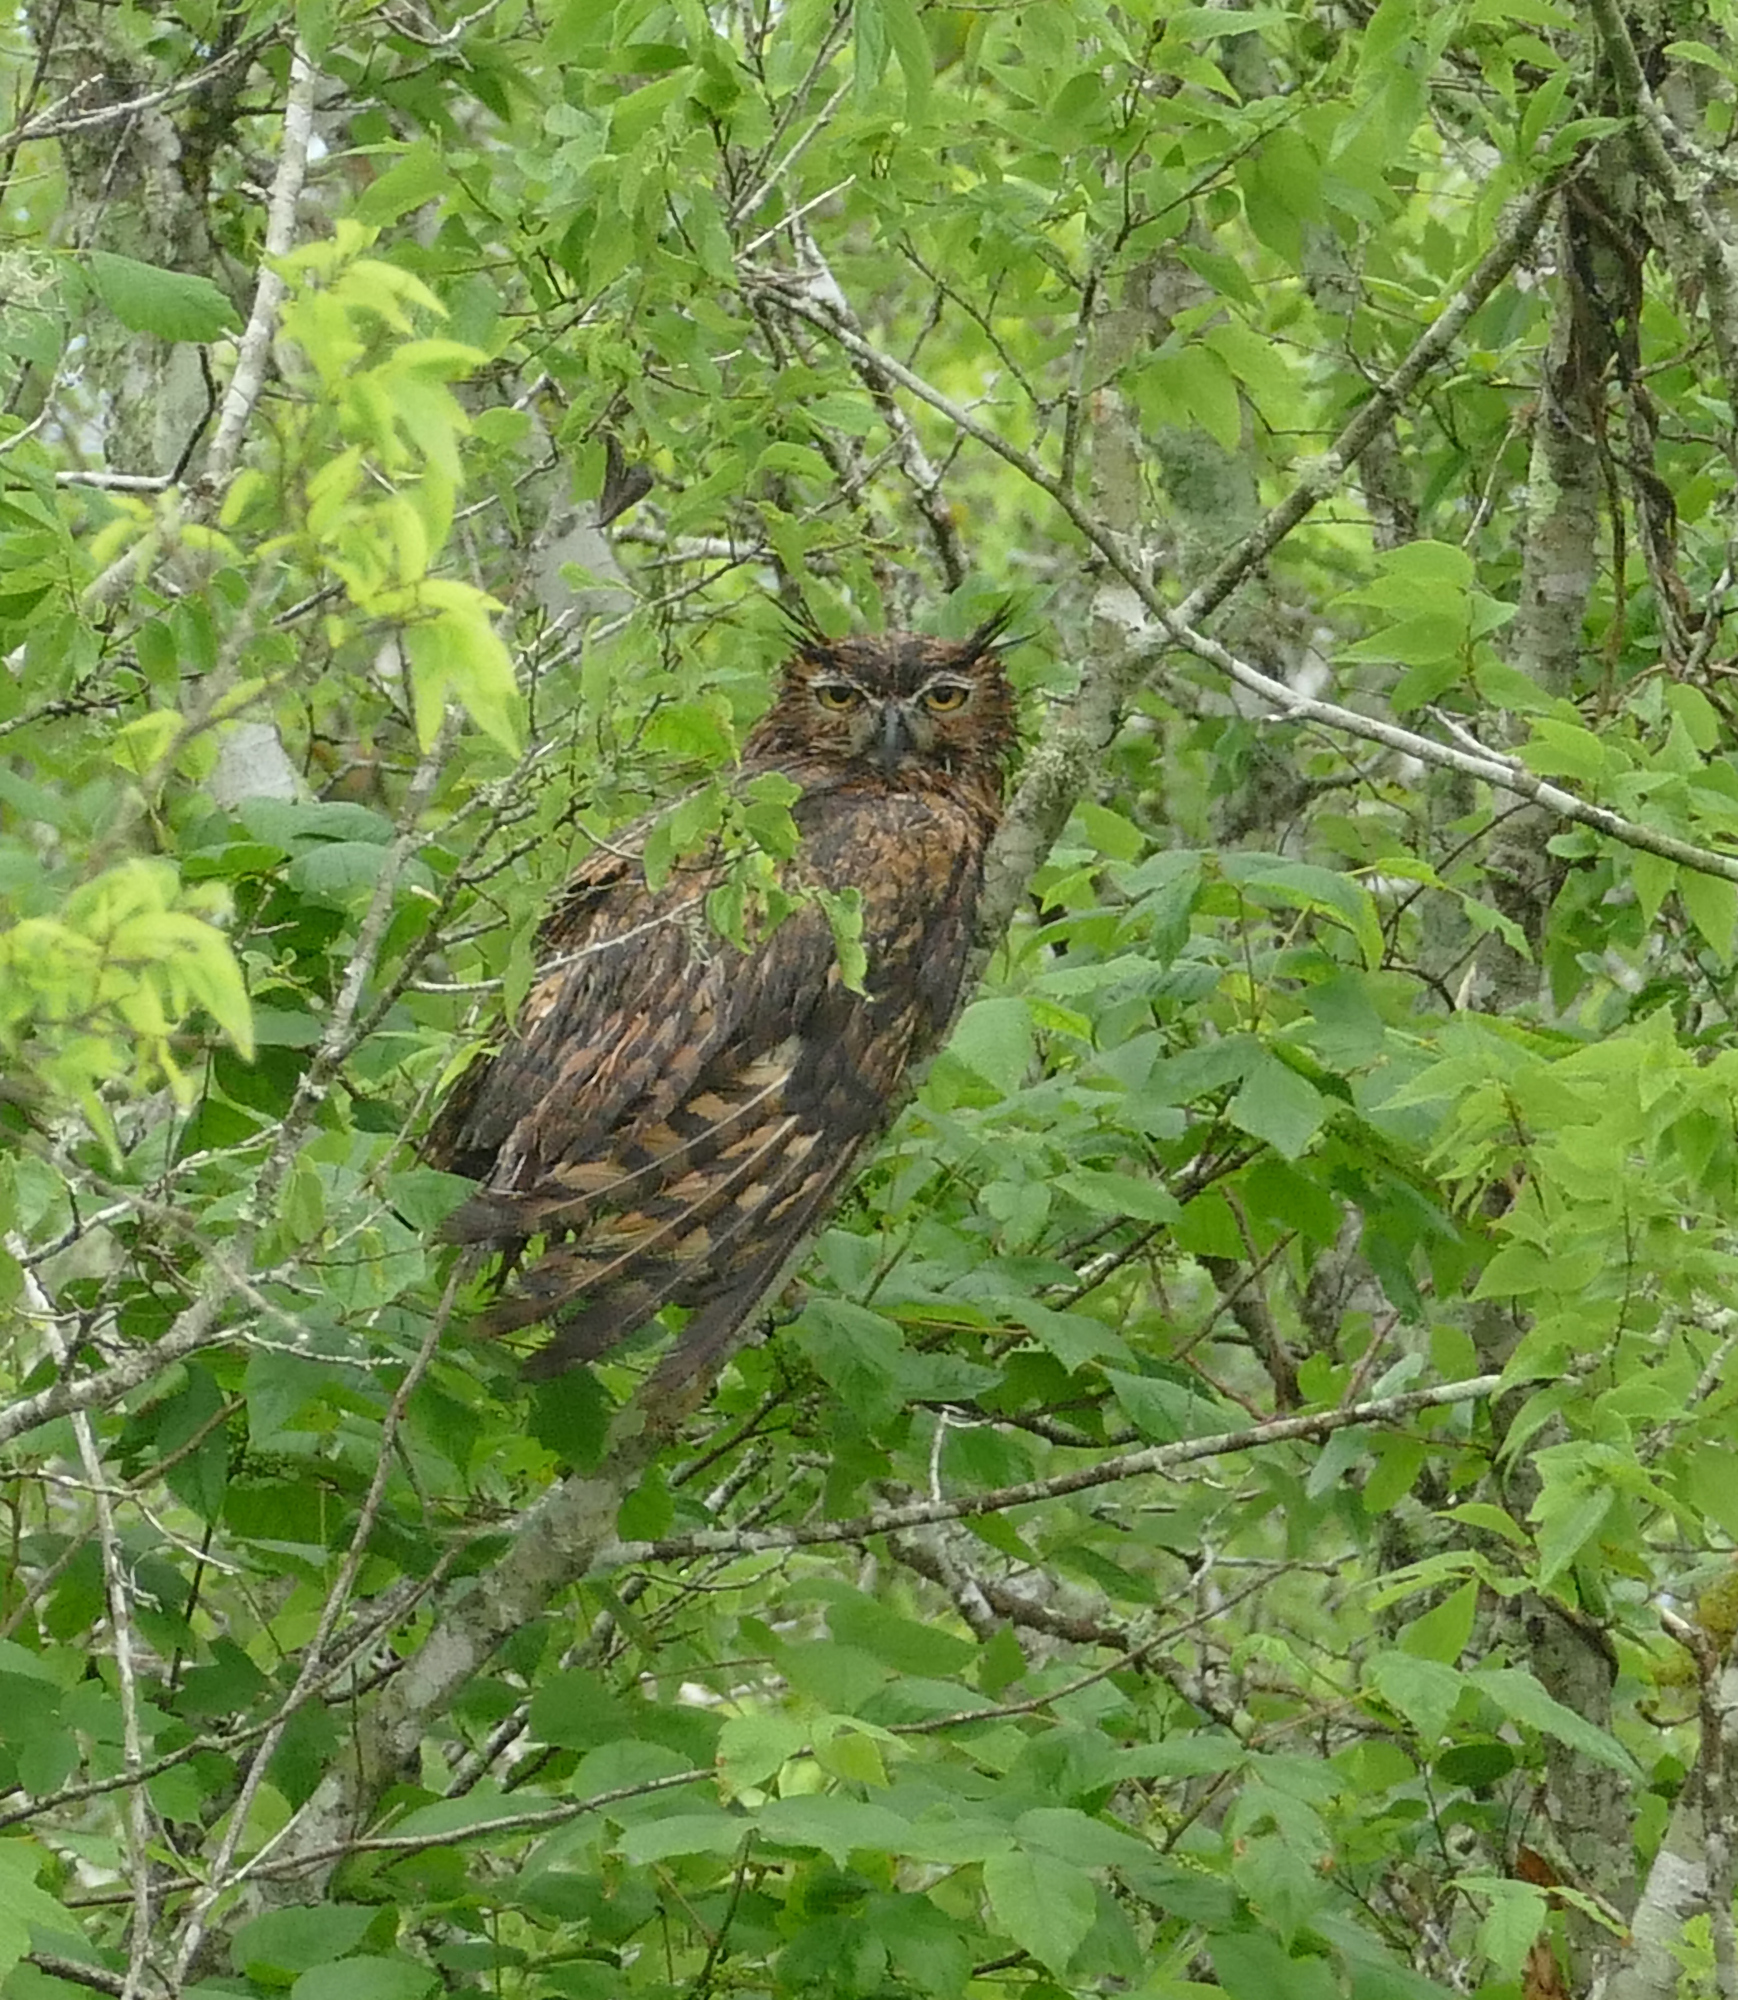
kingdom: Animalia
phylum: Chordata
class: Aves
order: Strigiformes
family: Strigidae
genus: Bubo
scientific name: Bubo virginianus
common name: Great horned owl
